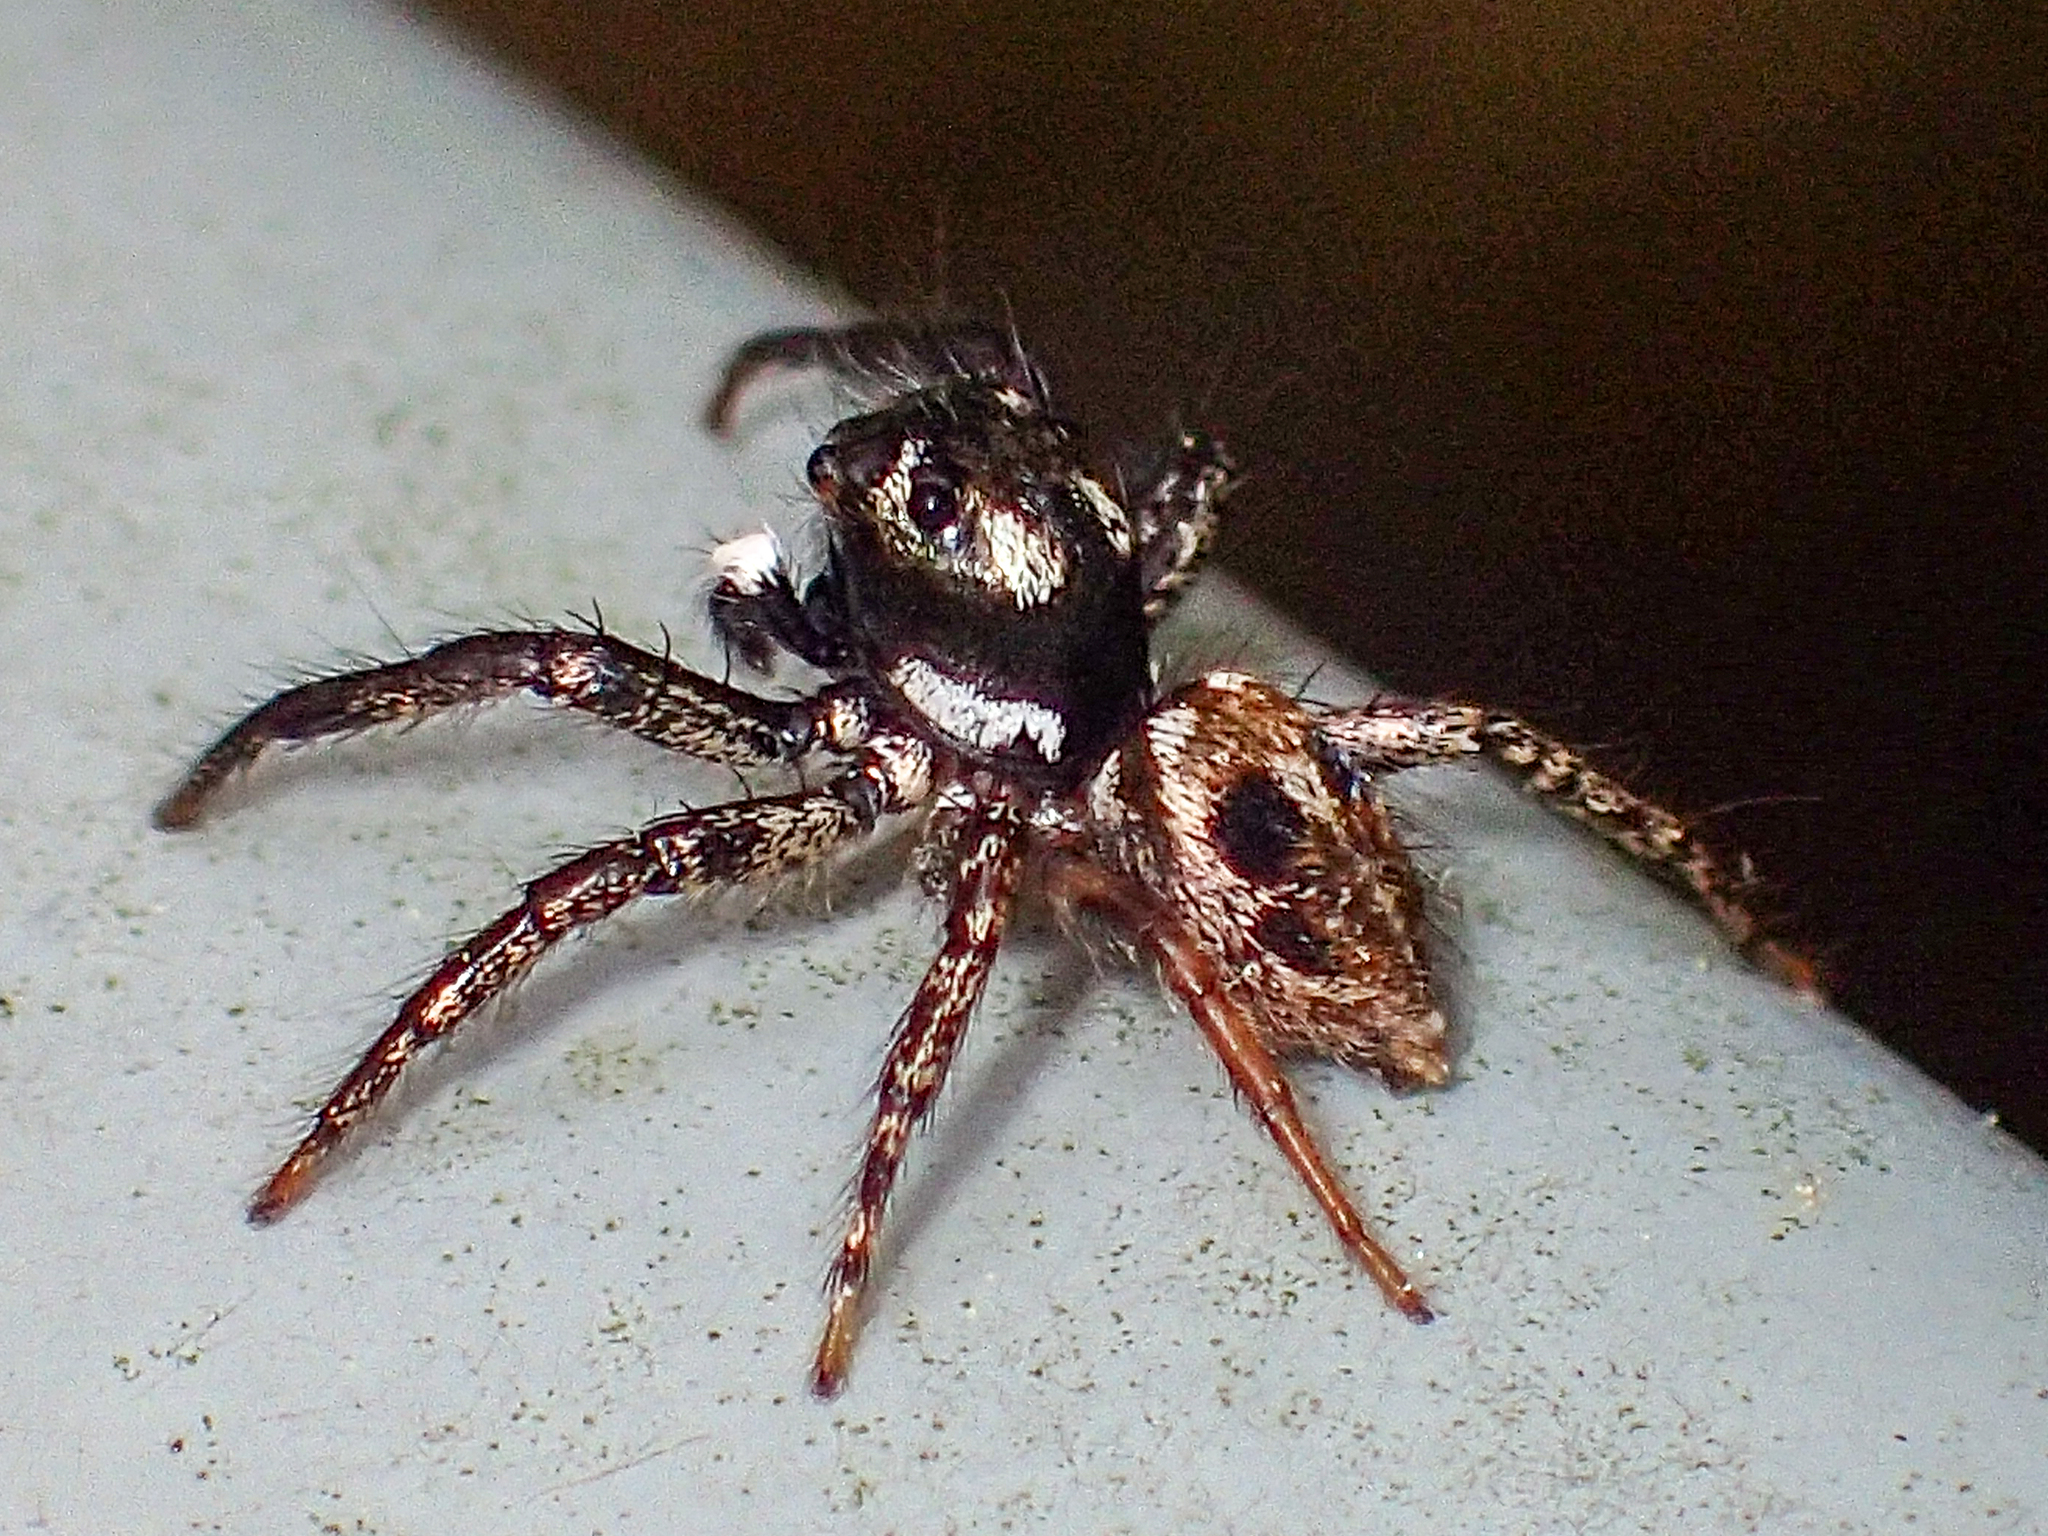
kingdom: Animalia
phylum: Arthropoda
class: Arachnida
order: Araneae
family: Salticidae
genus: Anasaitis
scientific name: Anasaitis canosa
